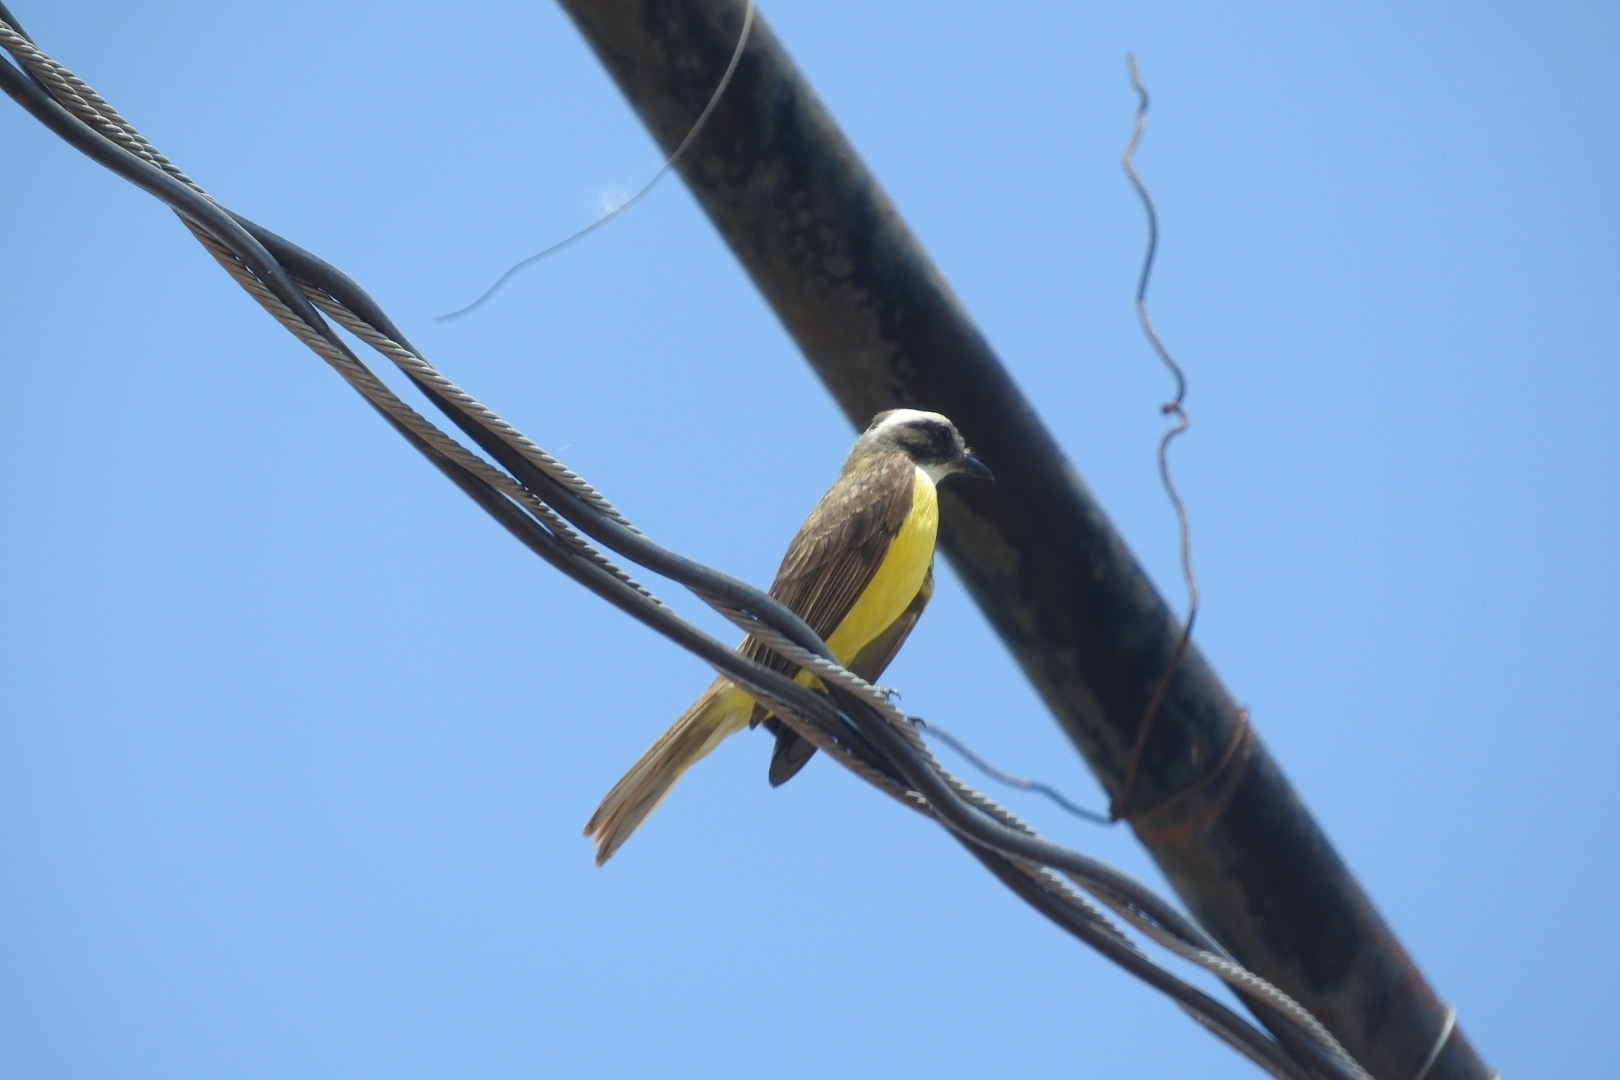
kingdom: Animalia
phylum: Chordata
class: Aves
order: Passeriformes
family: Tyrannidae
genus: Myiozetetes
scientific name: Myiozetetes similis
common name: Social flycatcher
